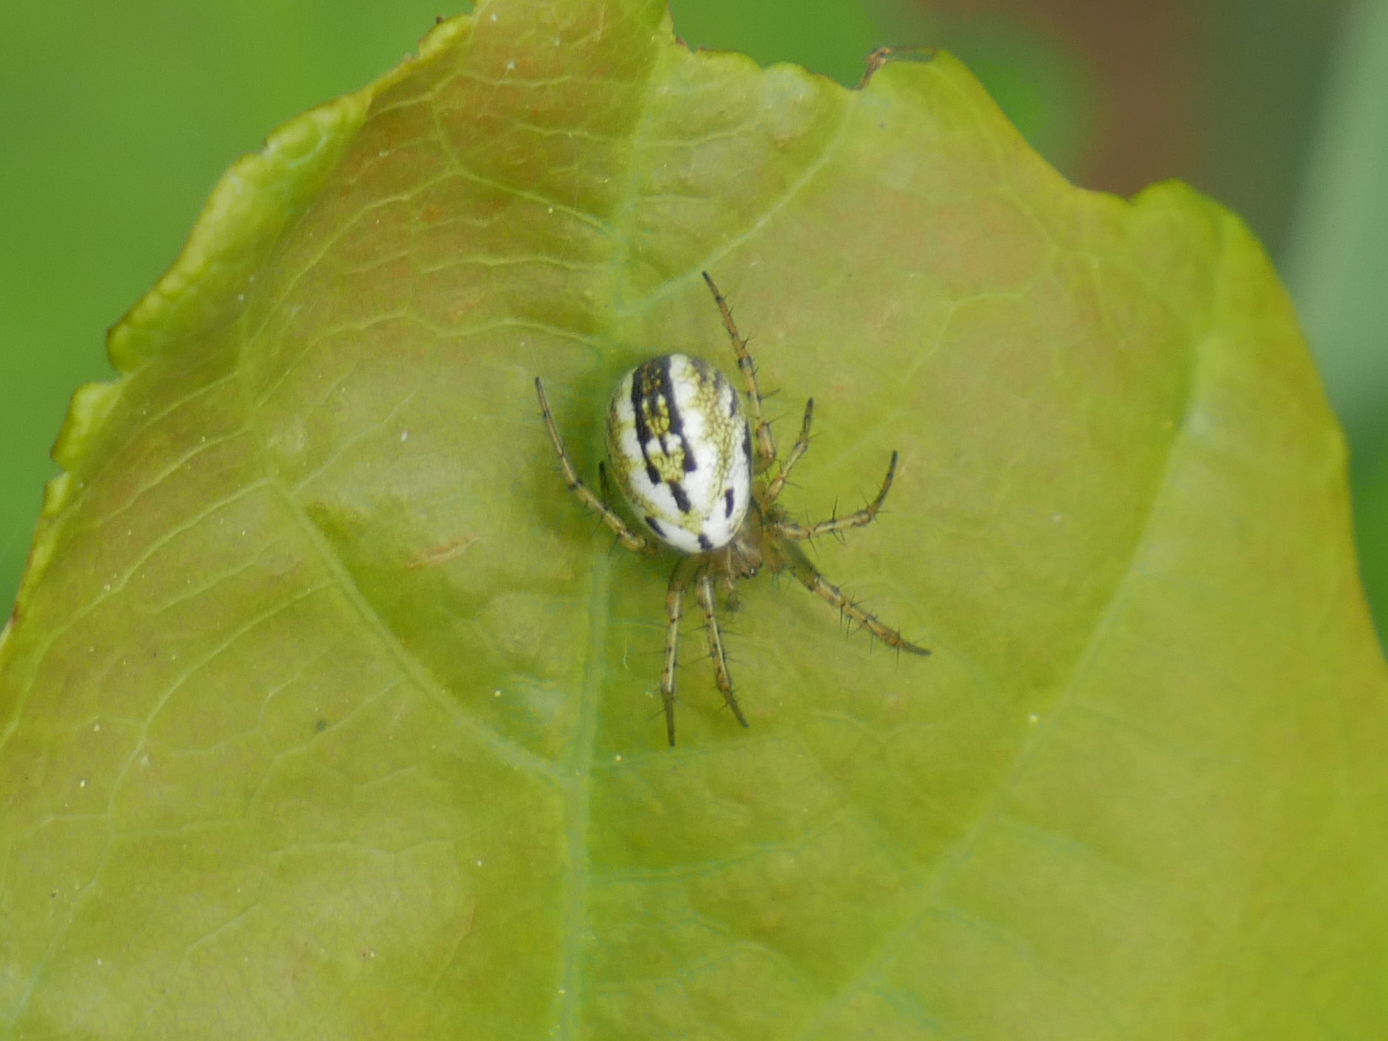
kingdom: Animalia
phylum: Arthropoda
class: Arachnida
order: Araneae
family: Araneidae
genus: Mangora
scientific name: Mangora acalypha
